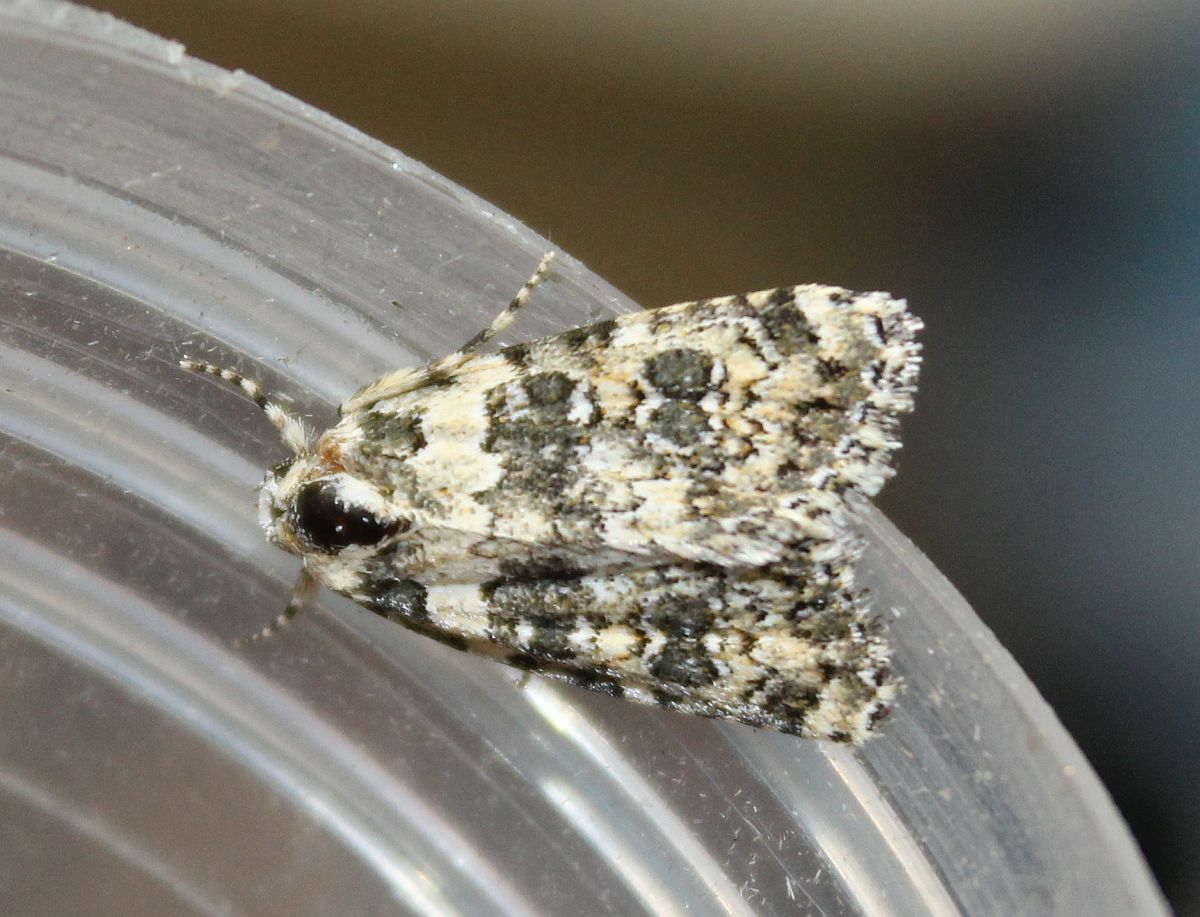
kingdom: Animalia
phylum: Arthropoda
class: Insecta
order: Lepidoptera
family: Noctuidae
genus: Bryophila
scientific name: Bryophila domestica
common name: Marbled beauty
